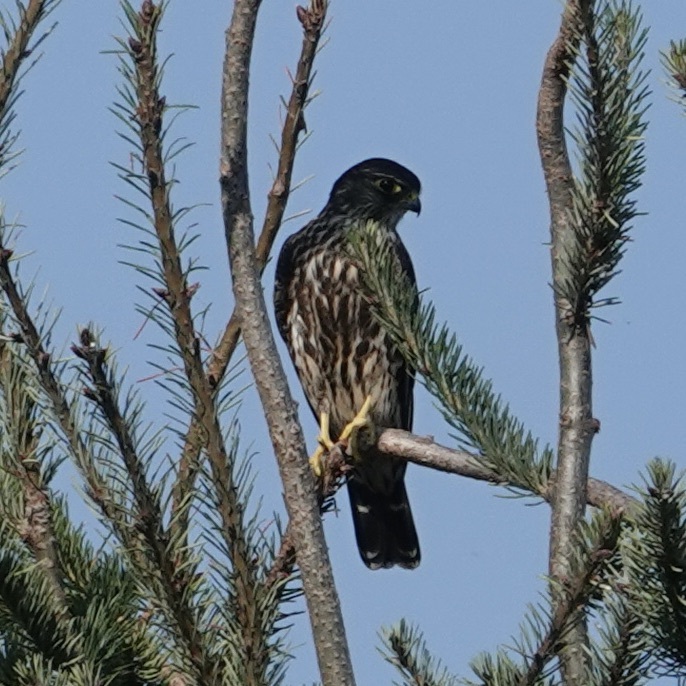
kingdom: Animalia
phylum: Chordata
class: Aves
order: Falconiformes
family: Falconidae
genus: Falco
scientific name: Falco columbarius
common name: Merlin
